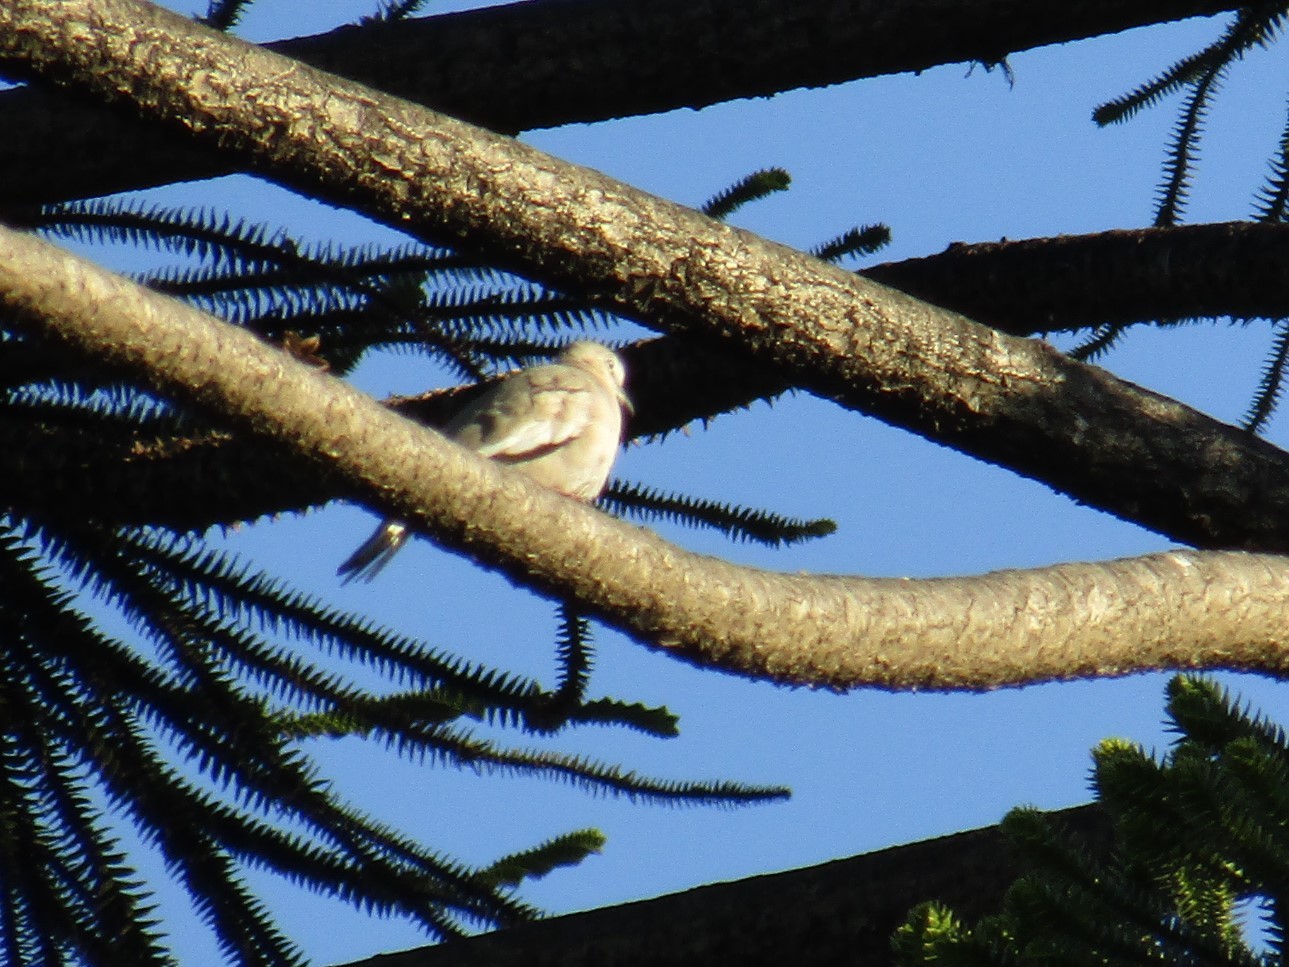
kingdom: Animalia
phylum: Chordata
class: Aves
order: Columbiformes
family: Columbidae
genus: Columbina
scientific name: Columbina picui
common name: Picui ground dove
